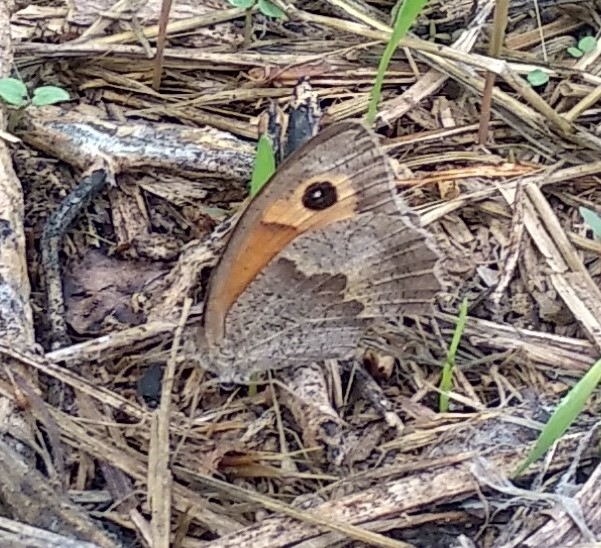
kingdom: Animalia
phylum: Arthropoda
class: Insecta
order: Lepidoptera
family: Nymphalidae
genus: Maniola
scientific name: Maniola jurtina
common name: Meadow brown
